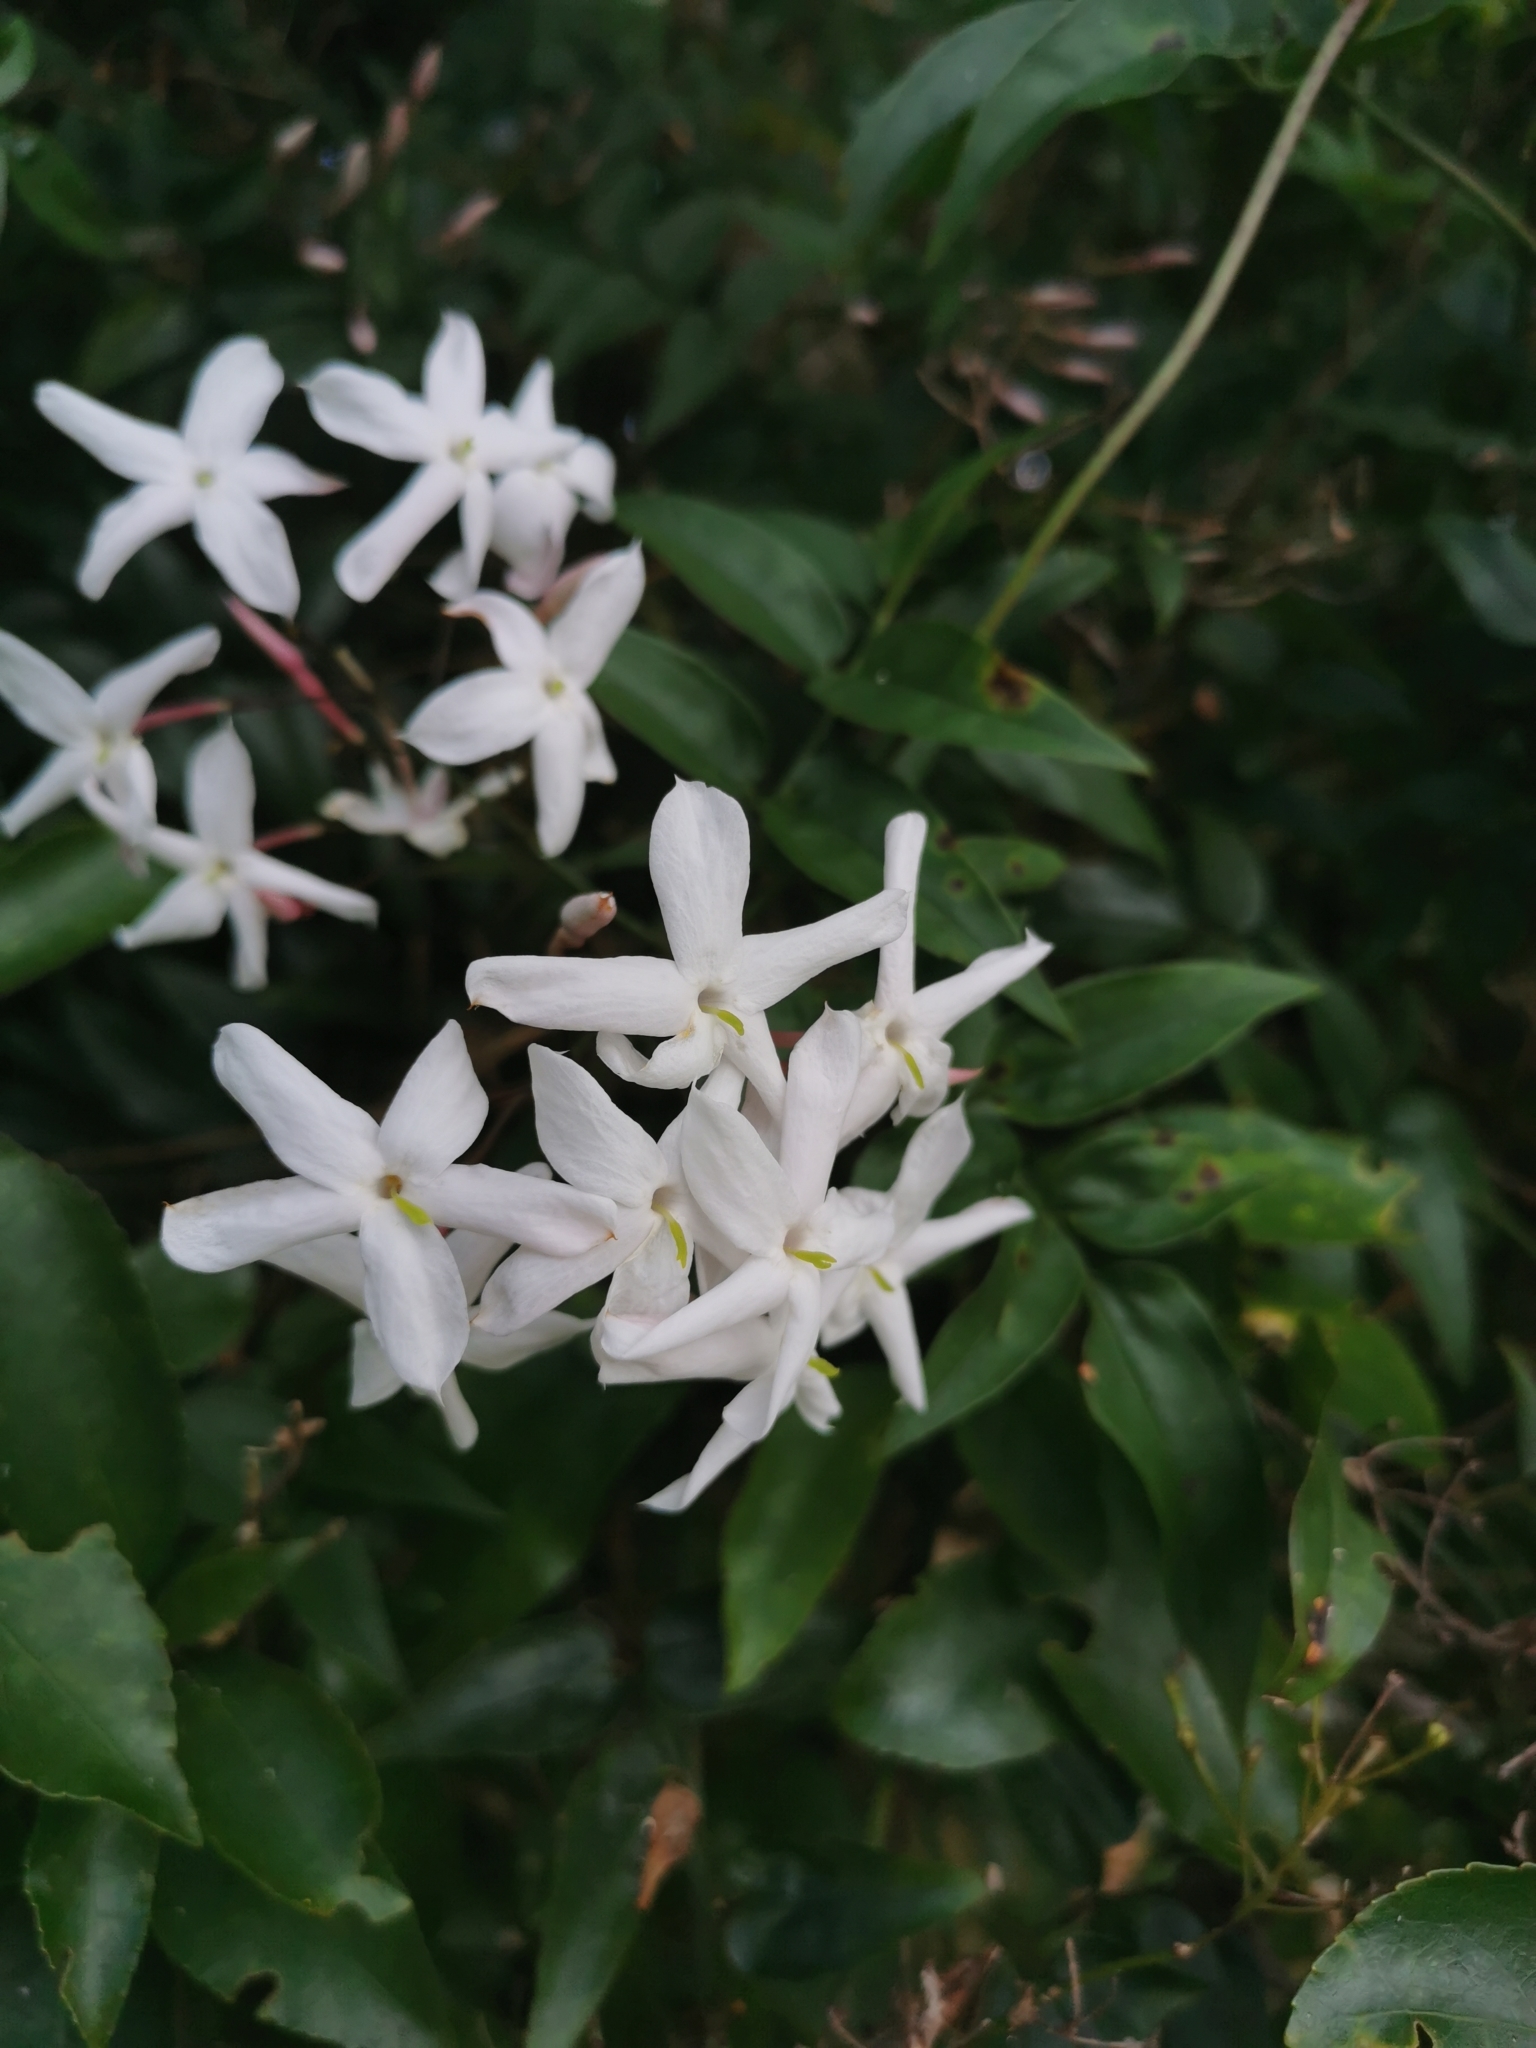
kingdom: Plantae
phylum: Tracheophyta
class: Magnoliopsida
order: Lamiales
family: Oleaceae
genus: Jasminum
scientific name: Jasminum polyanthum
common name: Pink jasmine
